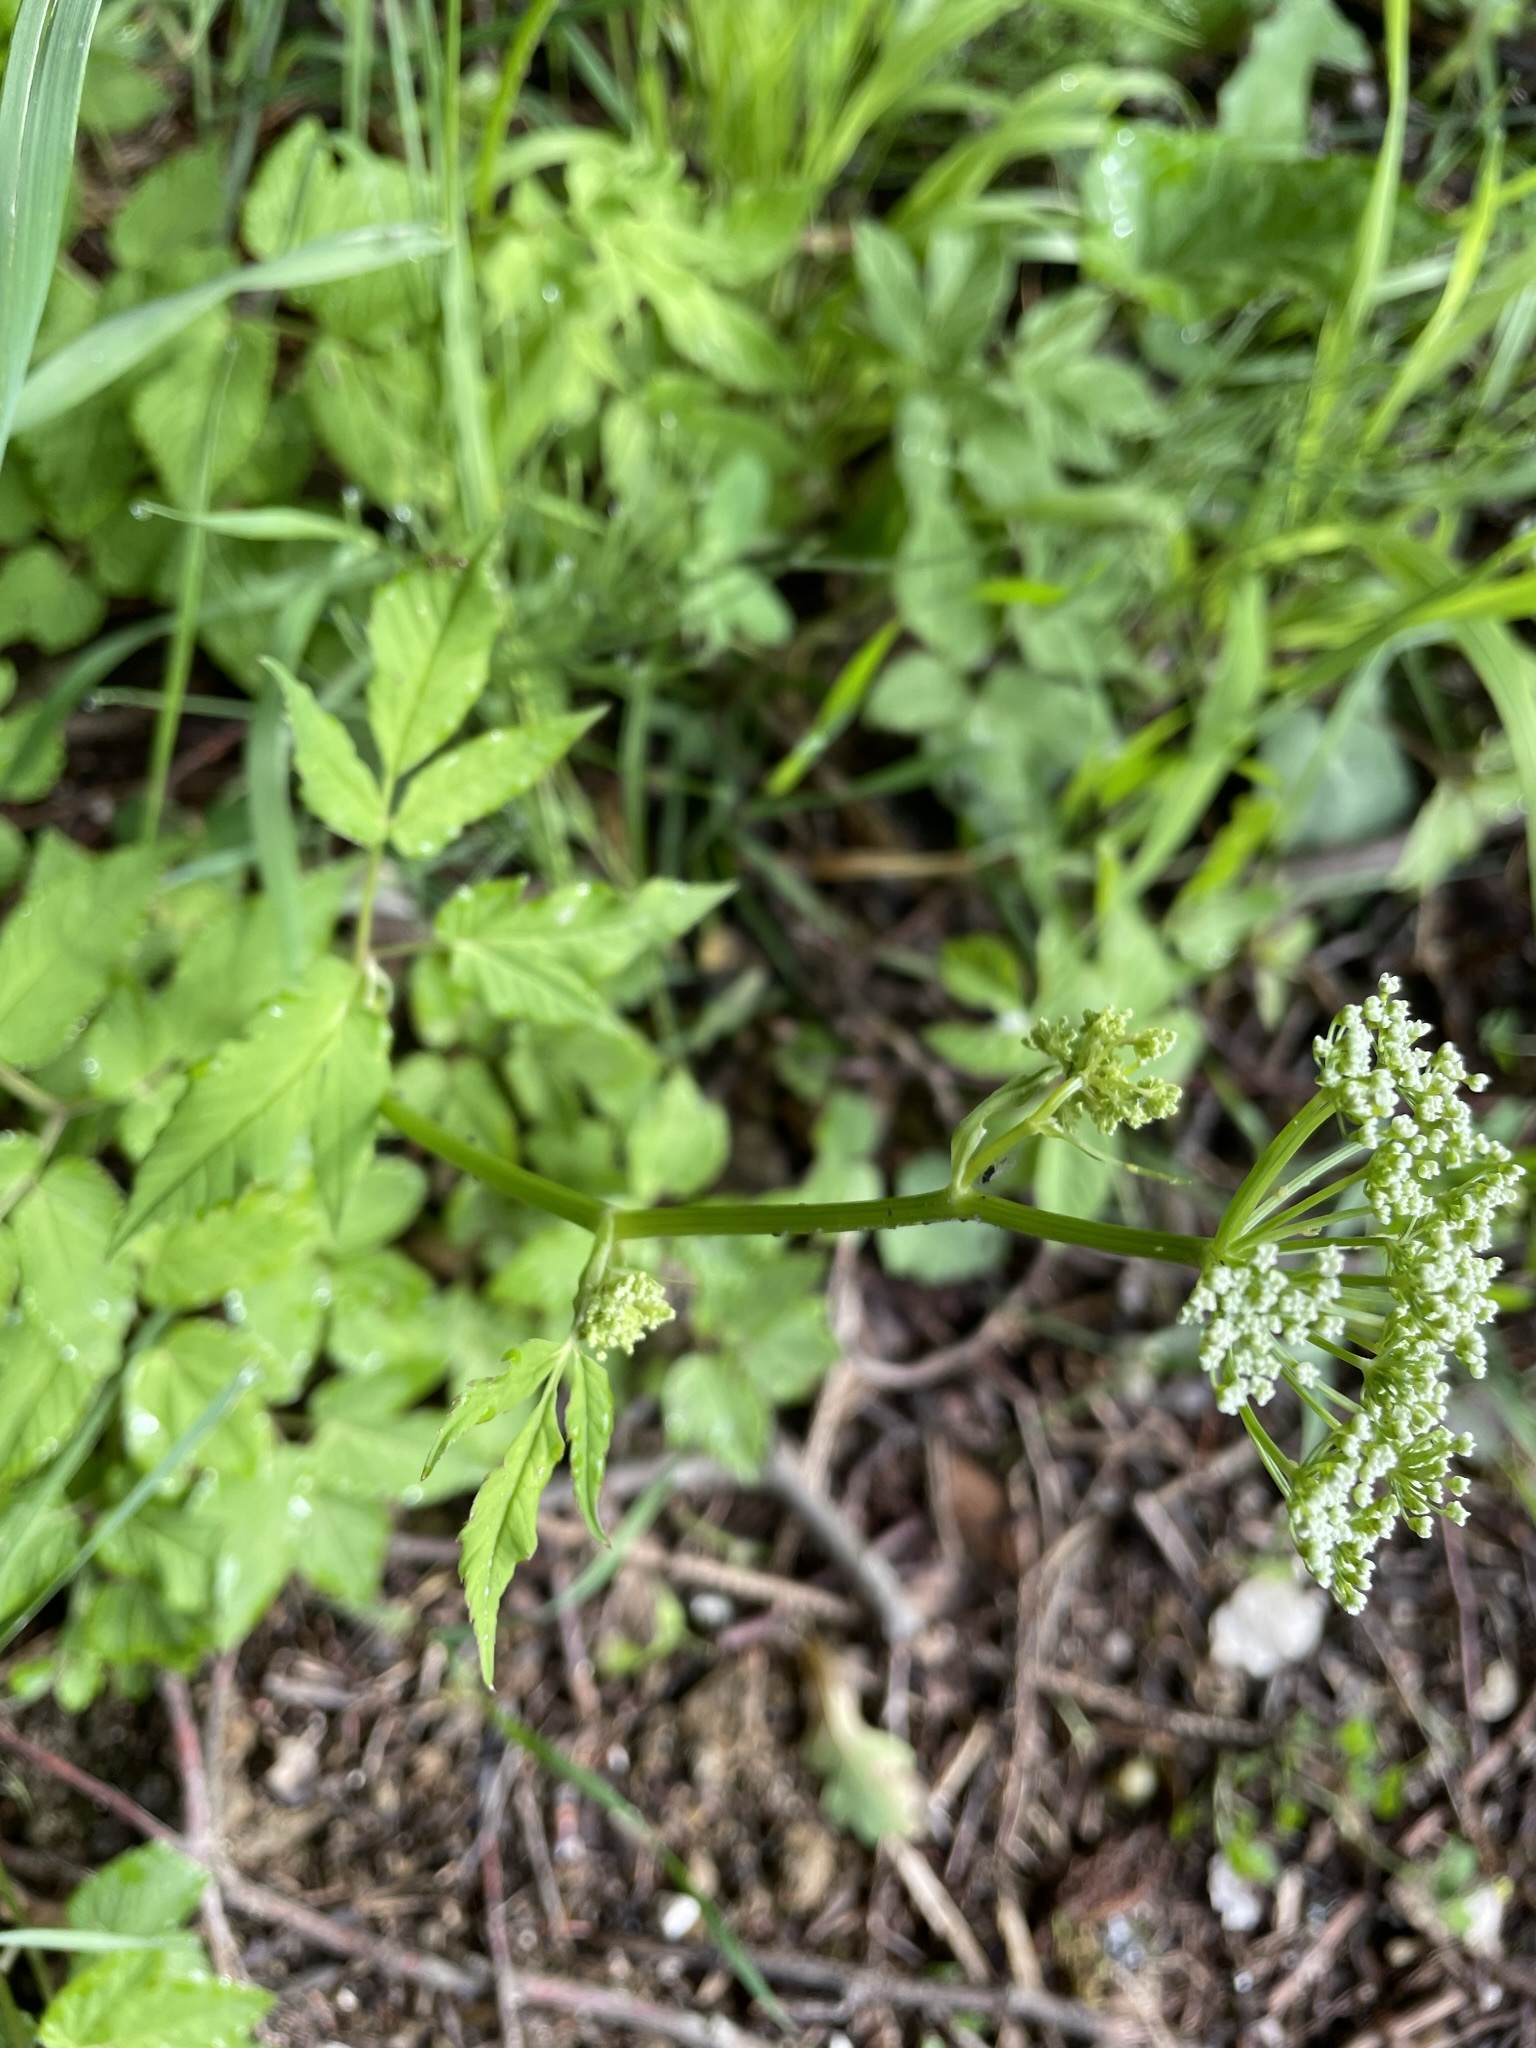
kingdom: Plantae
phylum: Tracheophyta
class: Magnoliopsida
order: Apiales
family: Apiaceae
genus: Aegopodium
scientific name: Aegopodium podagraria
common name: Ground-elder
